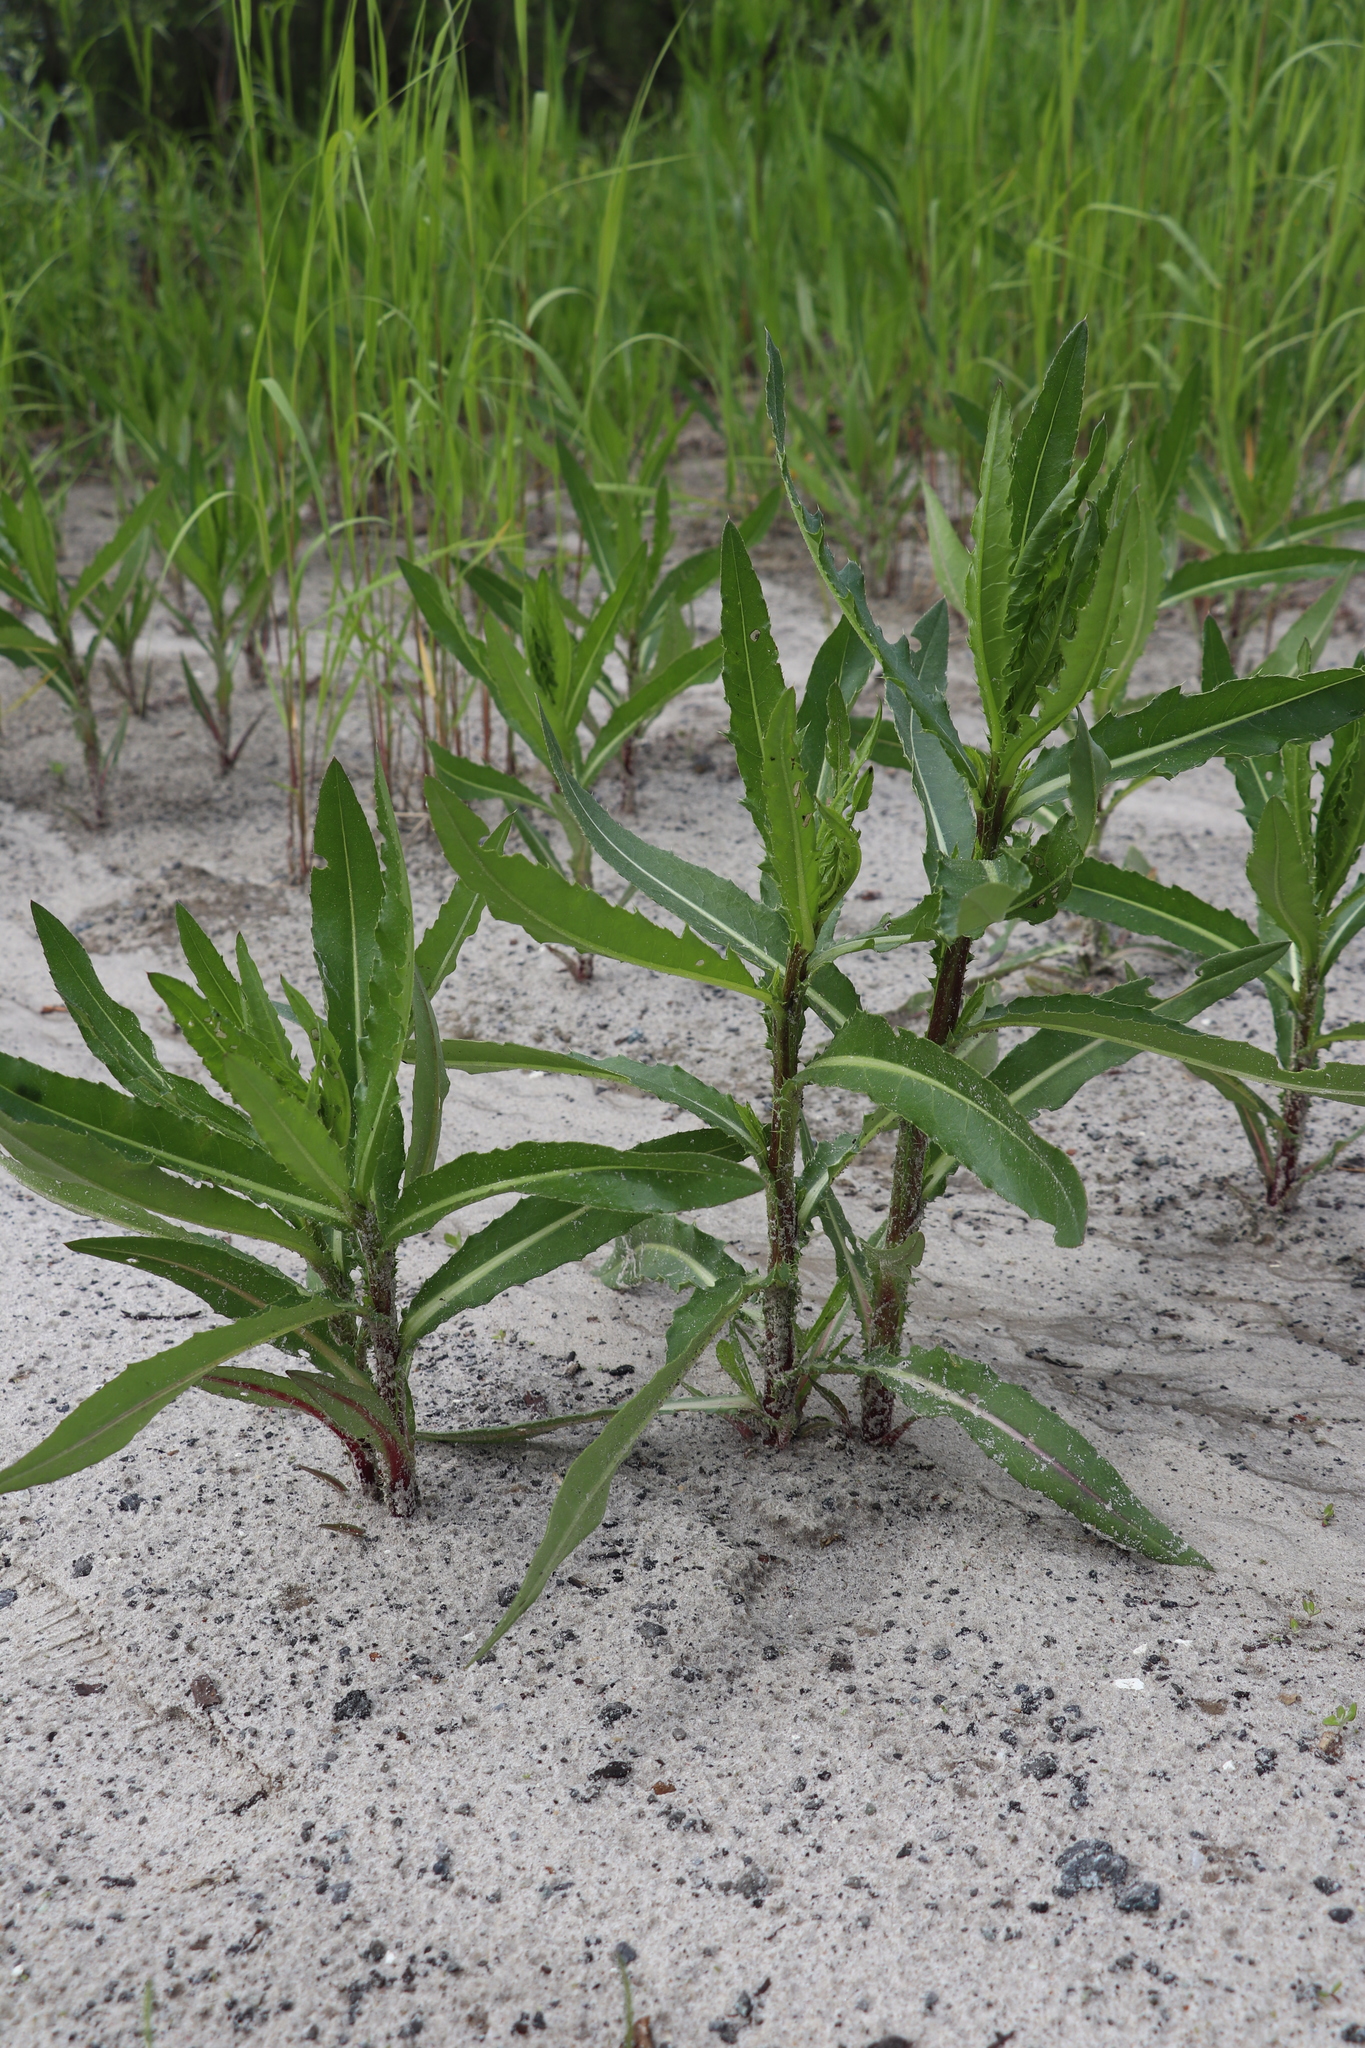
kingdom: Plantae
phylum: Tracheophyta
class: Magnoliopsida
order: Asterales
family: Asteraceae
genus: Cirsium
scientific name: Cirsium arvense
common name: Creeping thistle
